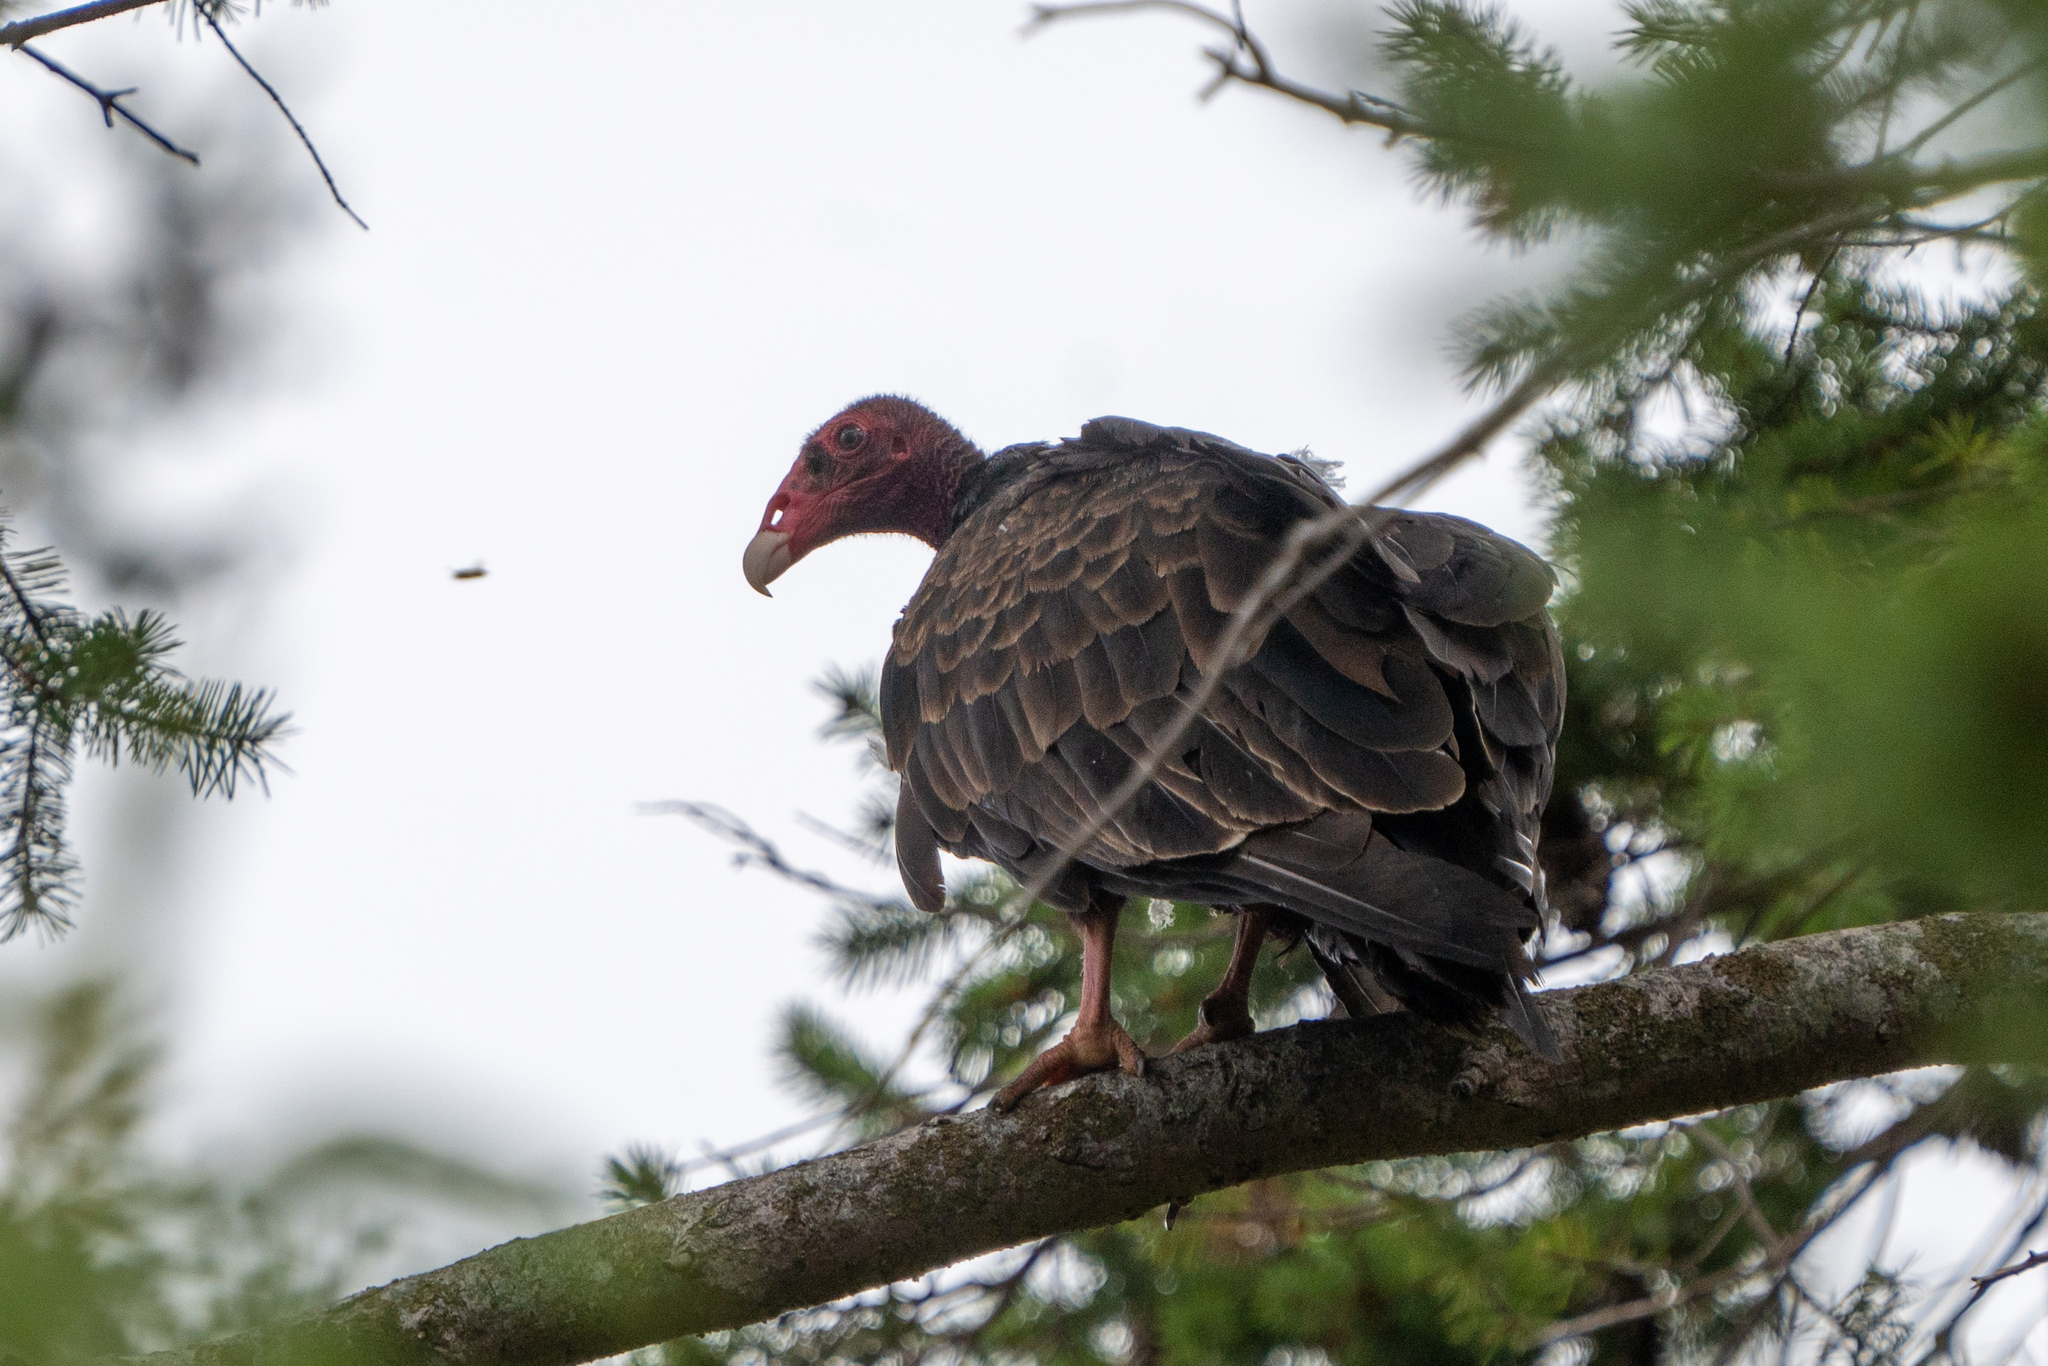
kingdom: Animalia
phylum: Chordata
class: Aves
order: Accipitriformes
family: Cathartidae
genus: Cathartes
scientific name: Cathartes aura
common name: Turkey vulture
